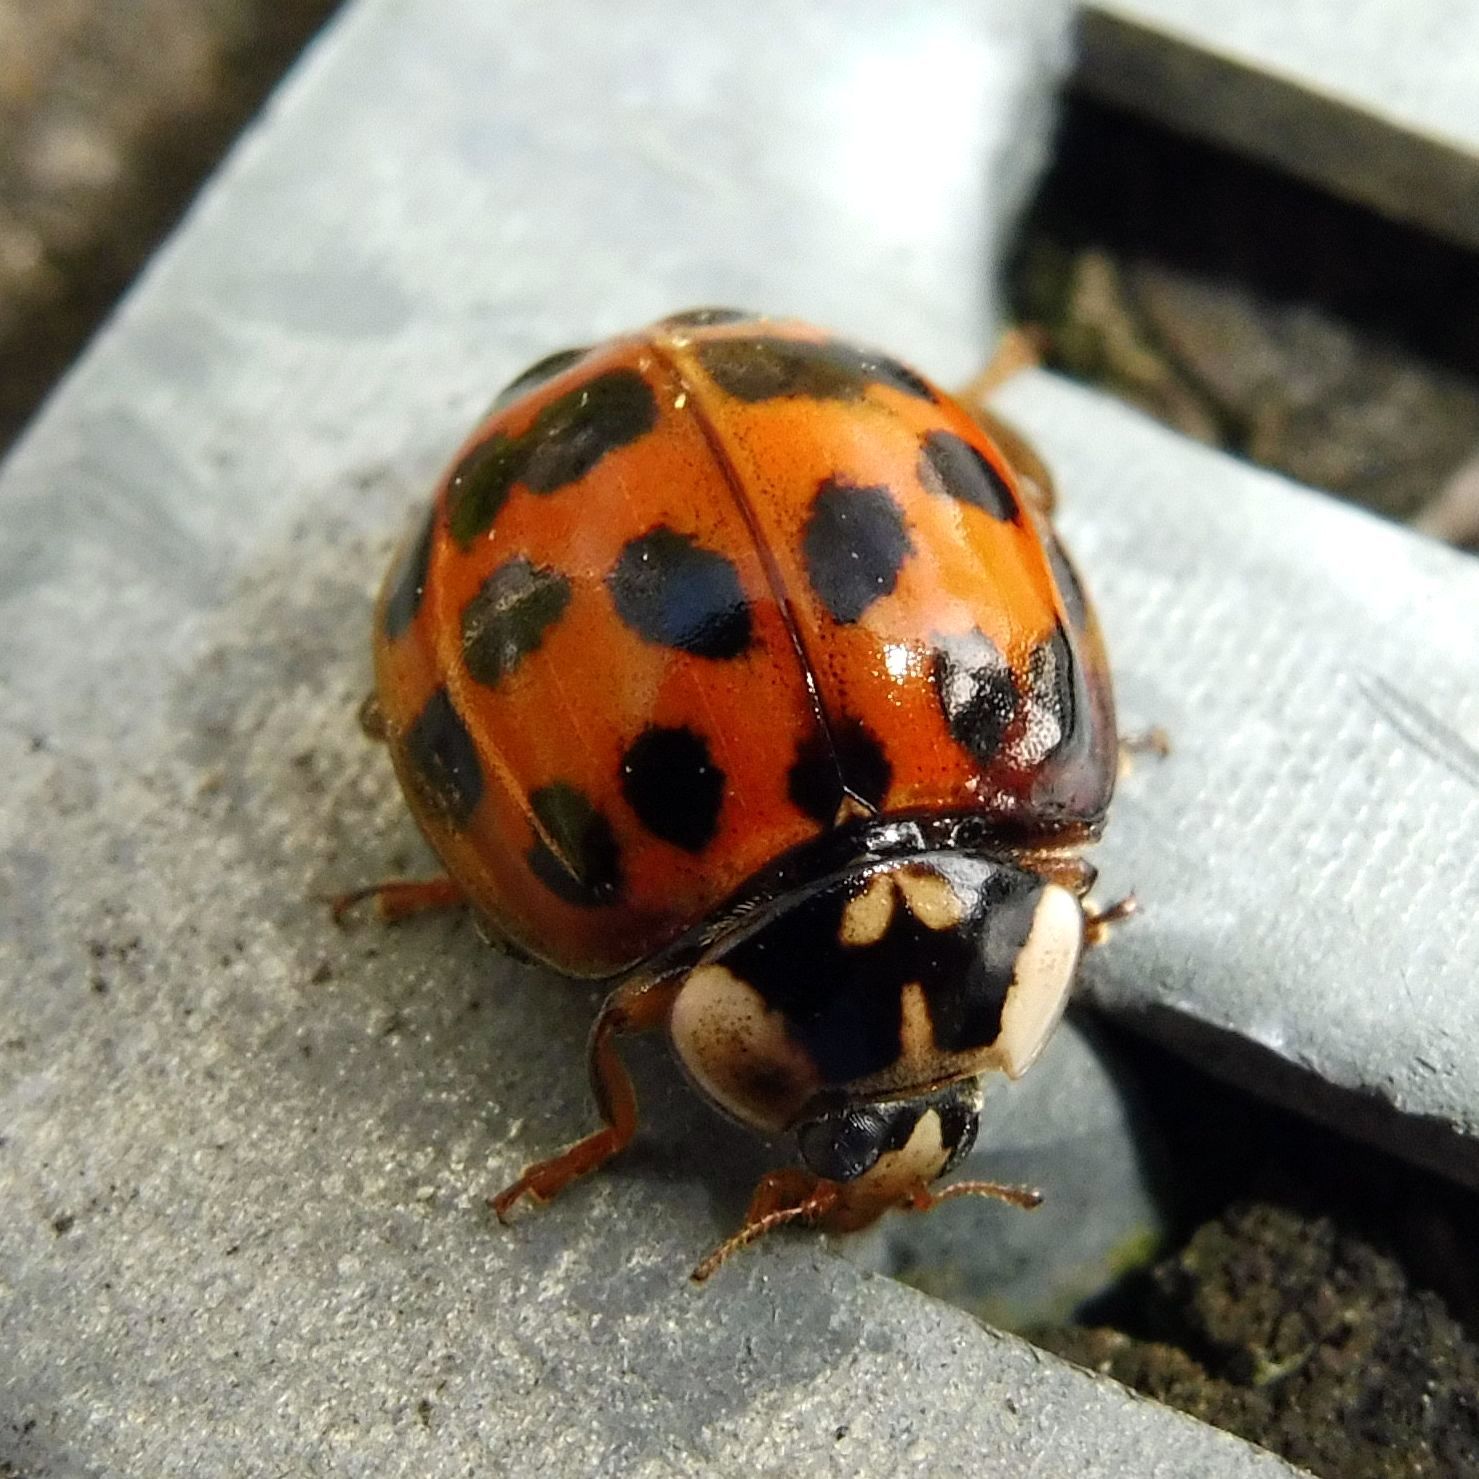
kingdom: Animalia
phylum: Arthropoda
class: Insecta
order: Coleoptera
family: Coccinellidae
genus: Harmonia
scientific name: Harmonia axyridis
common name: Harlequin ladybird
